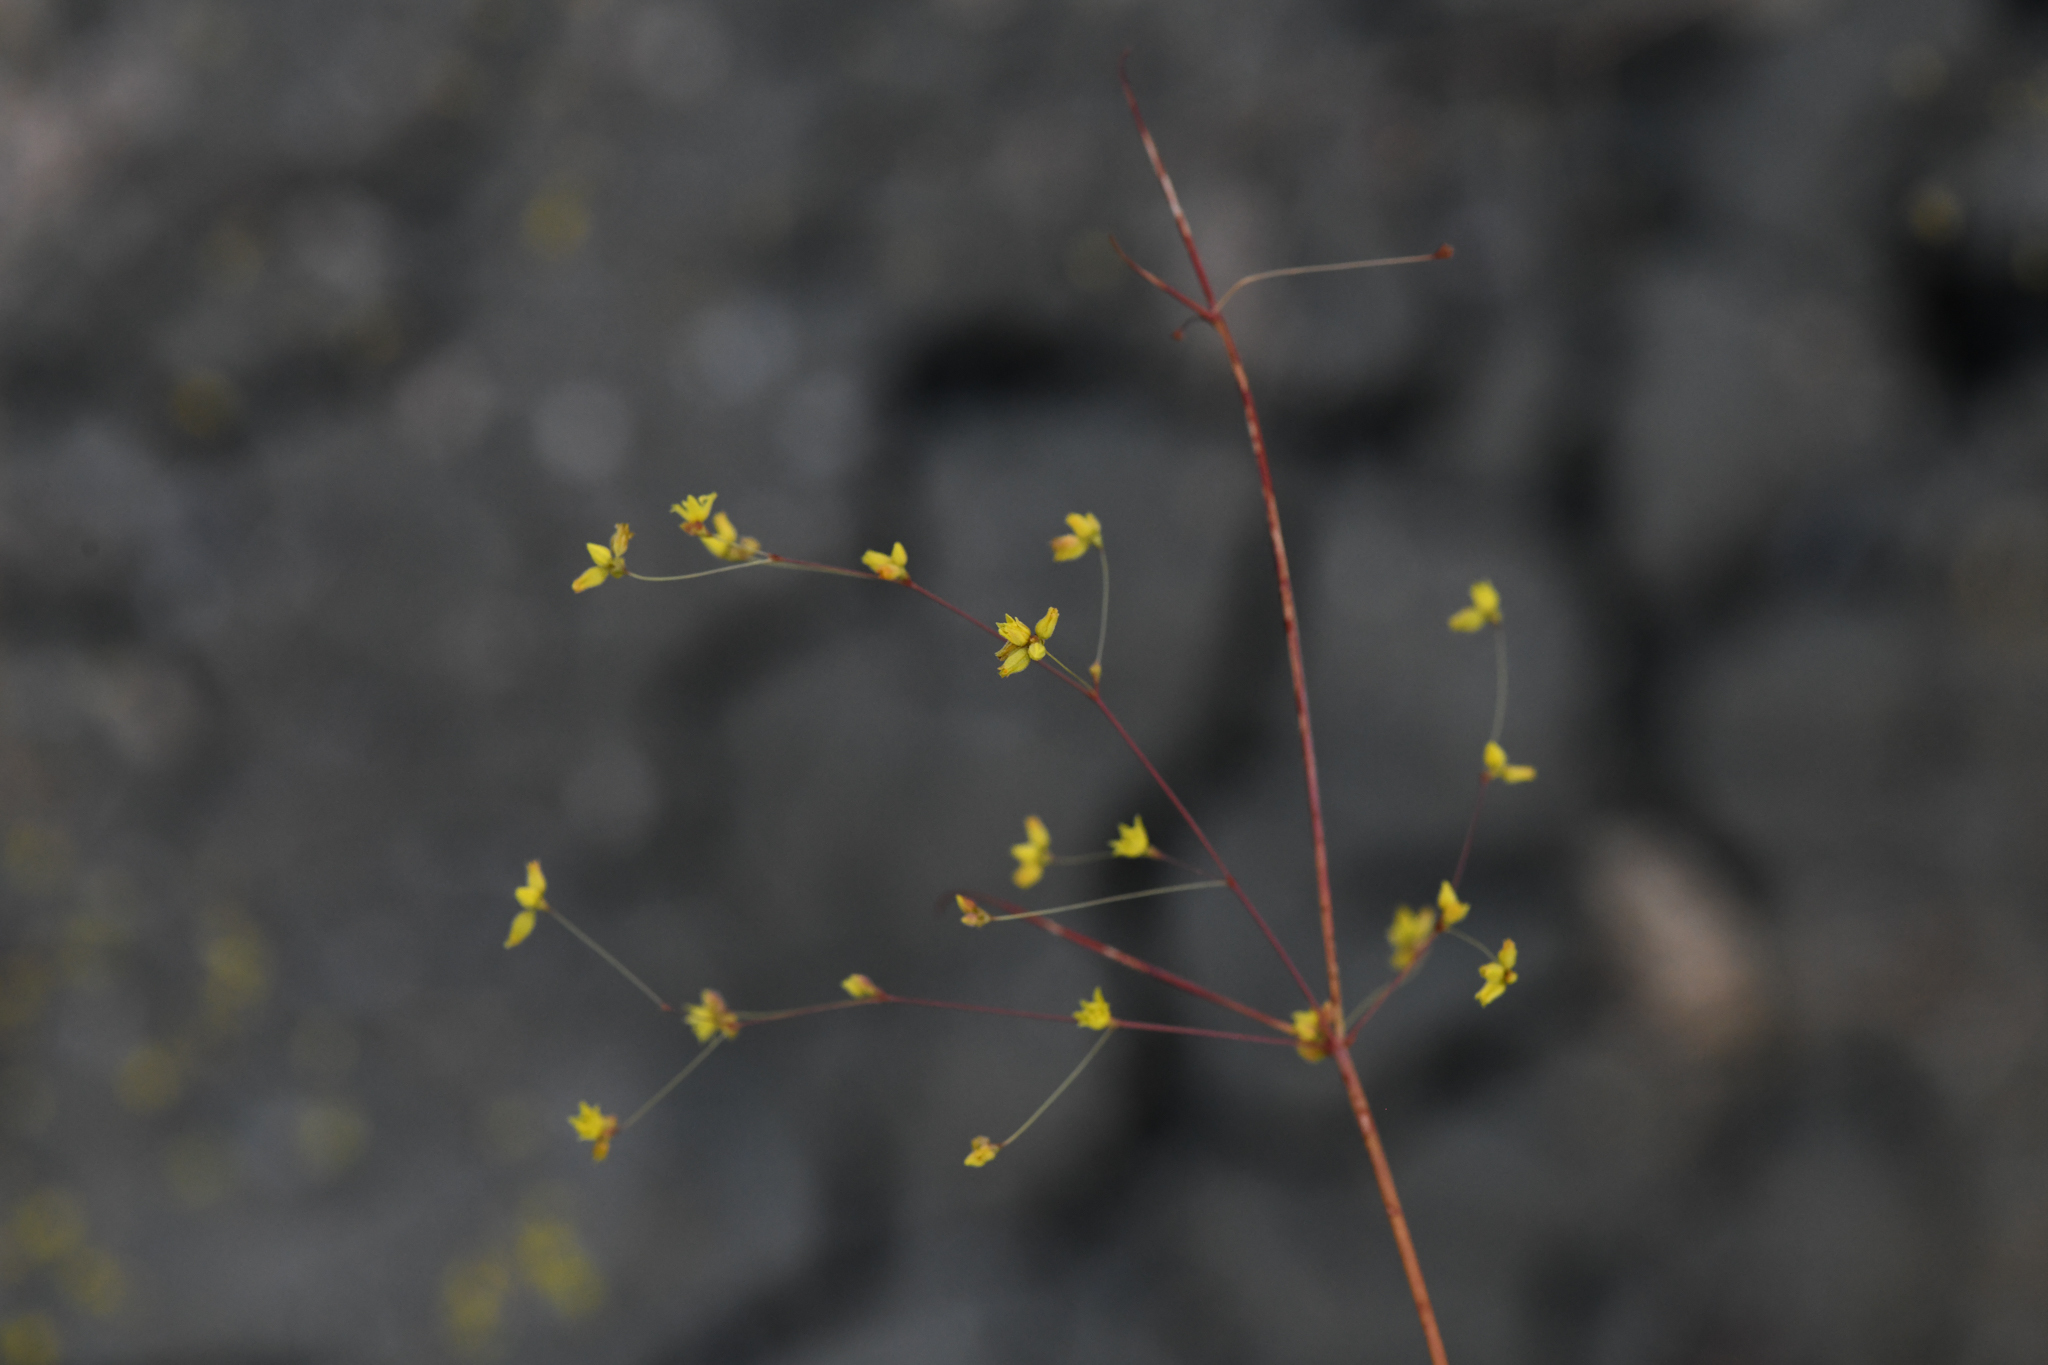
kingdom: Plantae
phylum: Tracheophyta
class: Magnoliopsida
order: Caryophyllales
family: Polygonaceae
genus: Eriogonum
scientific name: Eriogonum clavatum
